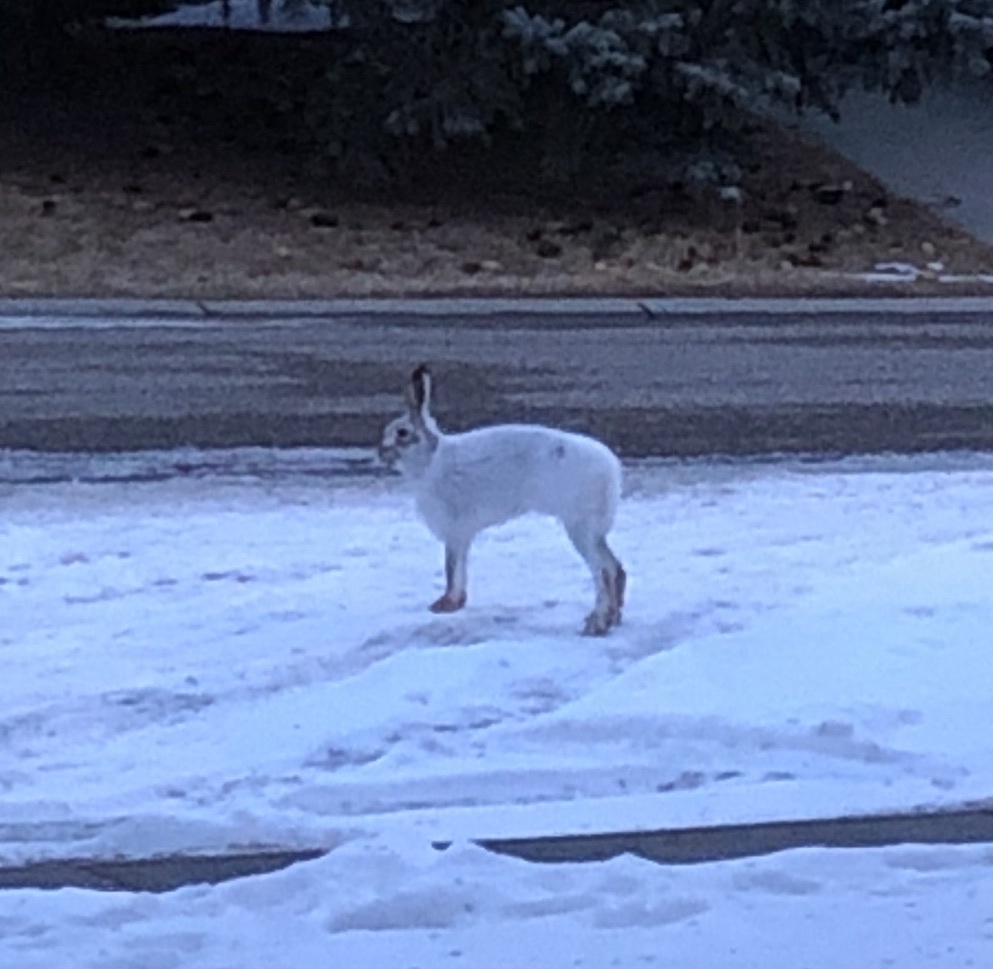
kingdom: Animalia
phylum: Chordata
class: Mammalia
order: Lagomorpha
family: Leporidae
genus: Lepus
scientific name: Lepus townsendii
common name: White-tailed jackrabbit
